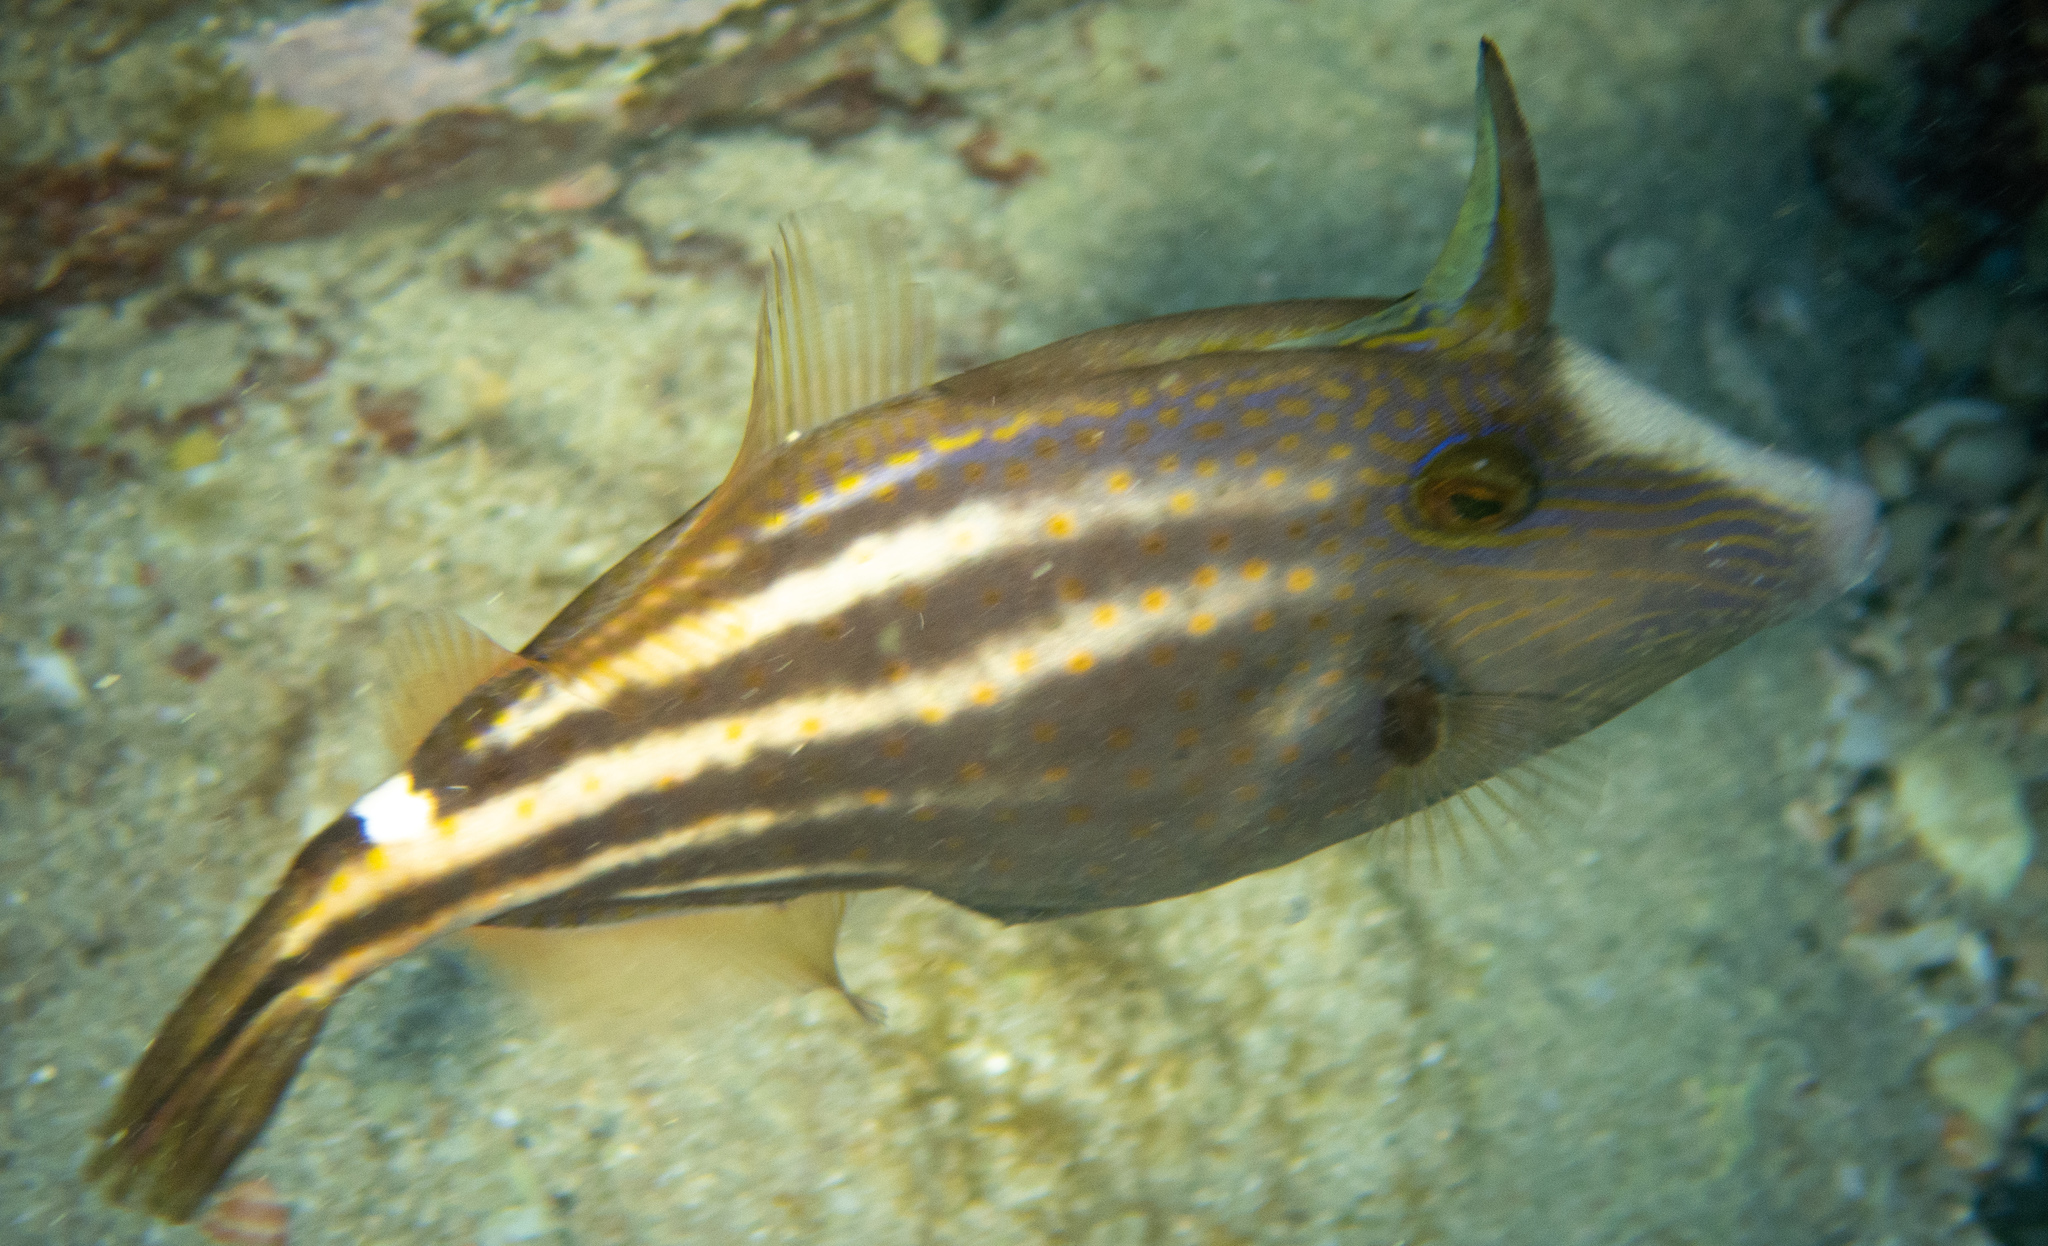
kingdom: Animalia
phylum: Chordata
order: Tetraodontiformes
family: Monacanthidae
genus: Cantherhines
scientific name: Cantherhines pullus
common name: Orangespotted filefish
